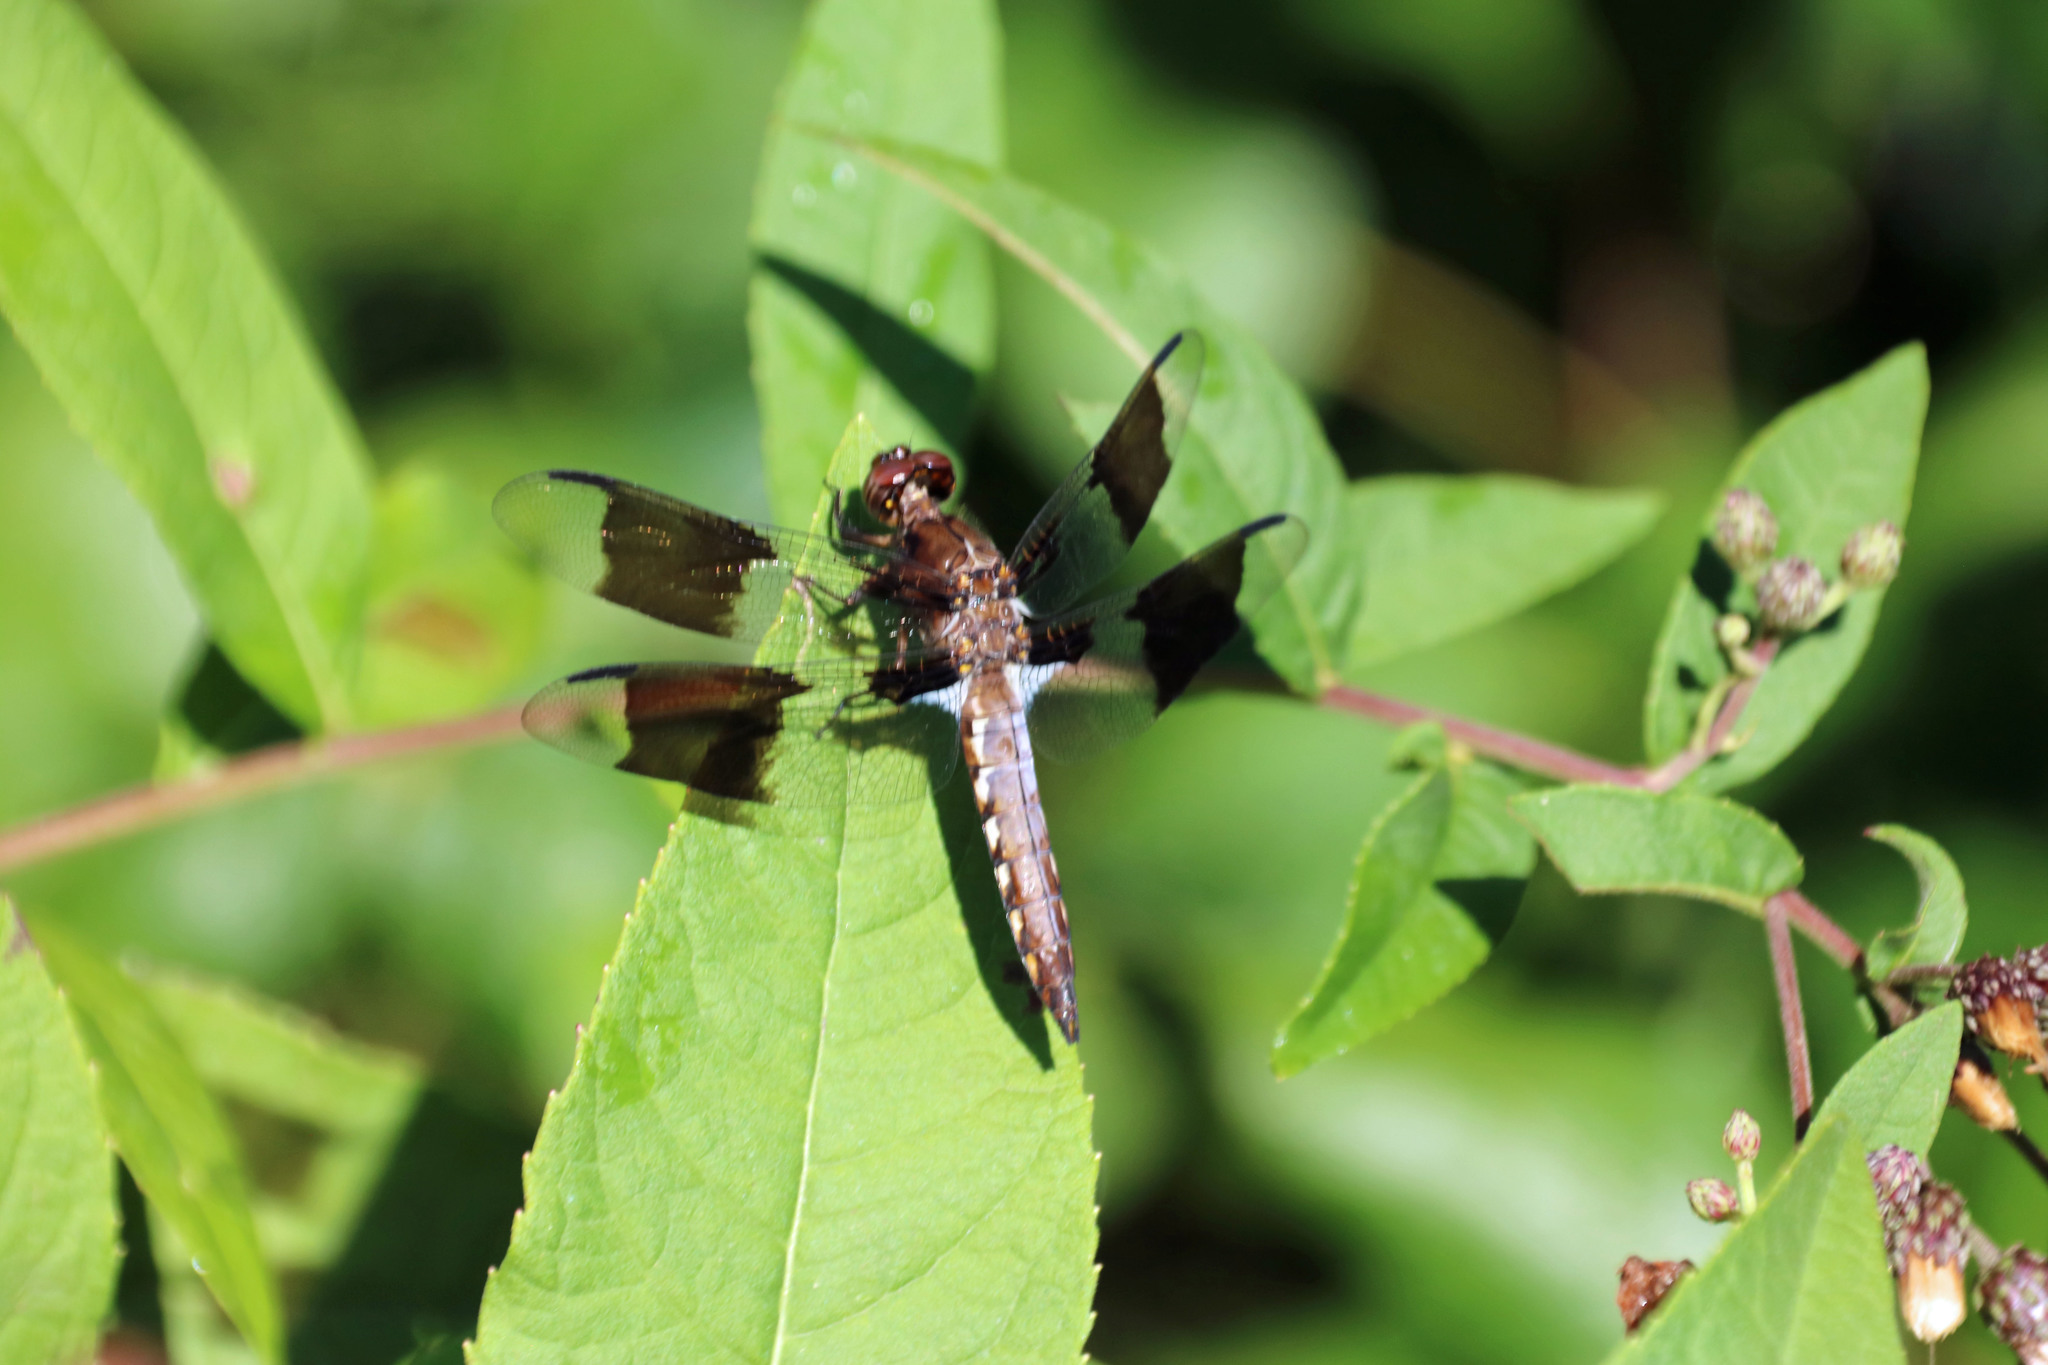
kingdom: Animalia
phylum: Arthropoda
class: Insecta
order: Odonata
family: Libellulidae
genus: Plathemis
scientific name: Plathemis lydia
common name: Common whitetail
